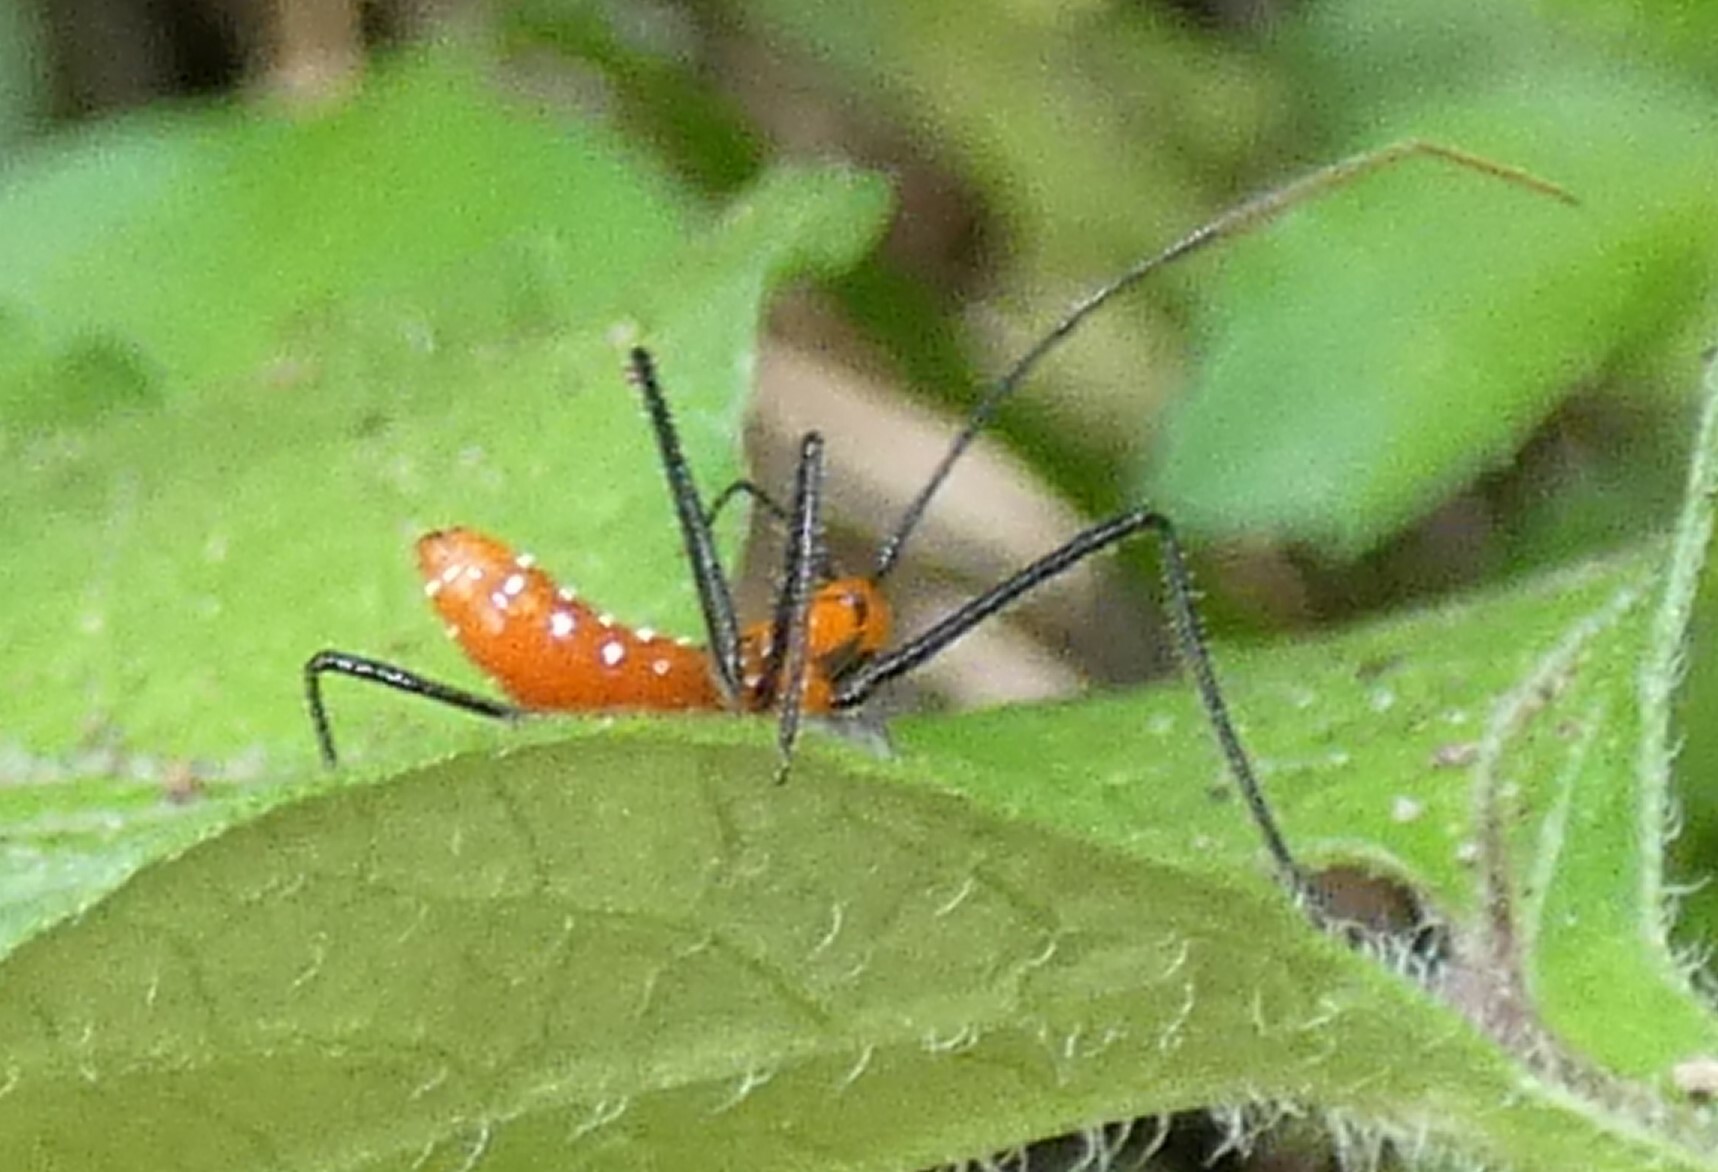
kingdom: Animalia
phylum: Arthropoda
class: Insecta
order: Hemiptera
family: Reduviidae
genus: Zelus
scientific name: Zelus longipes
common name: Milkweed assassin bug
